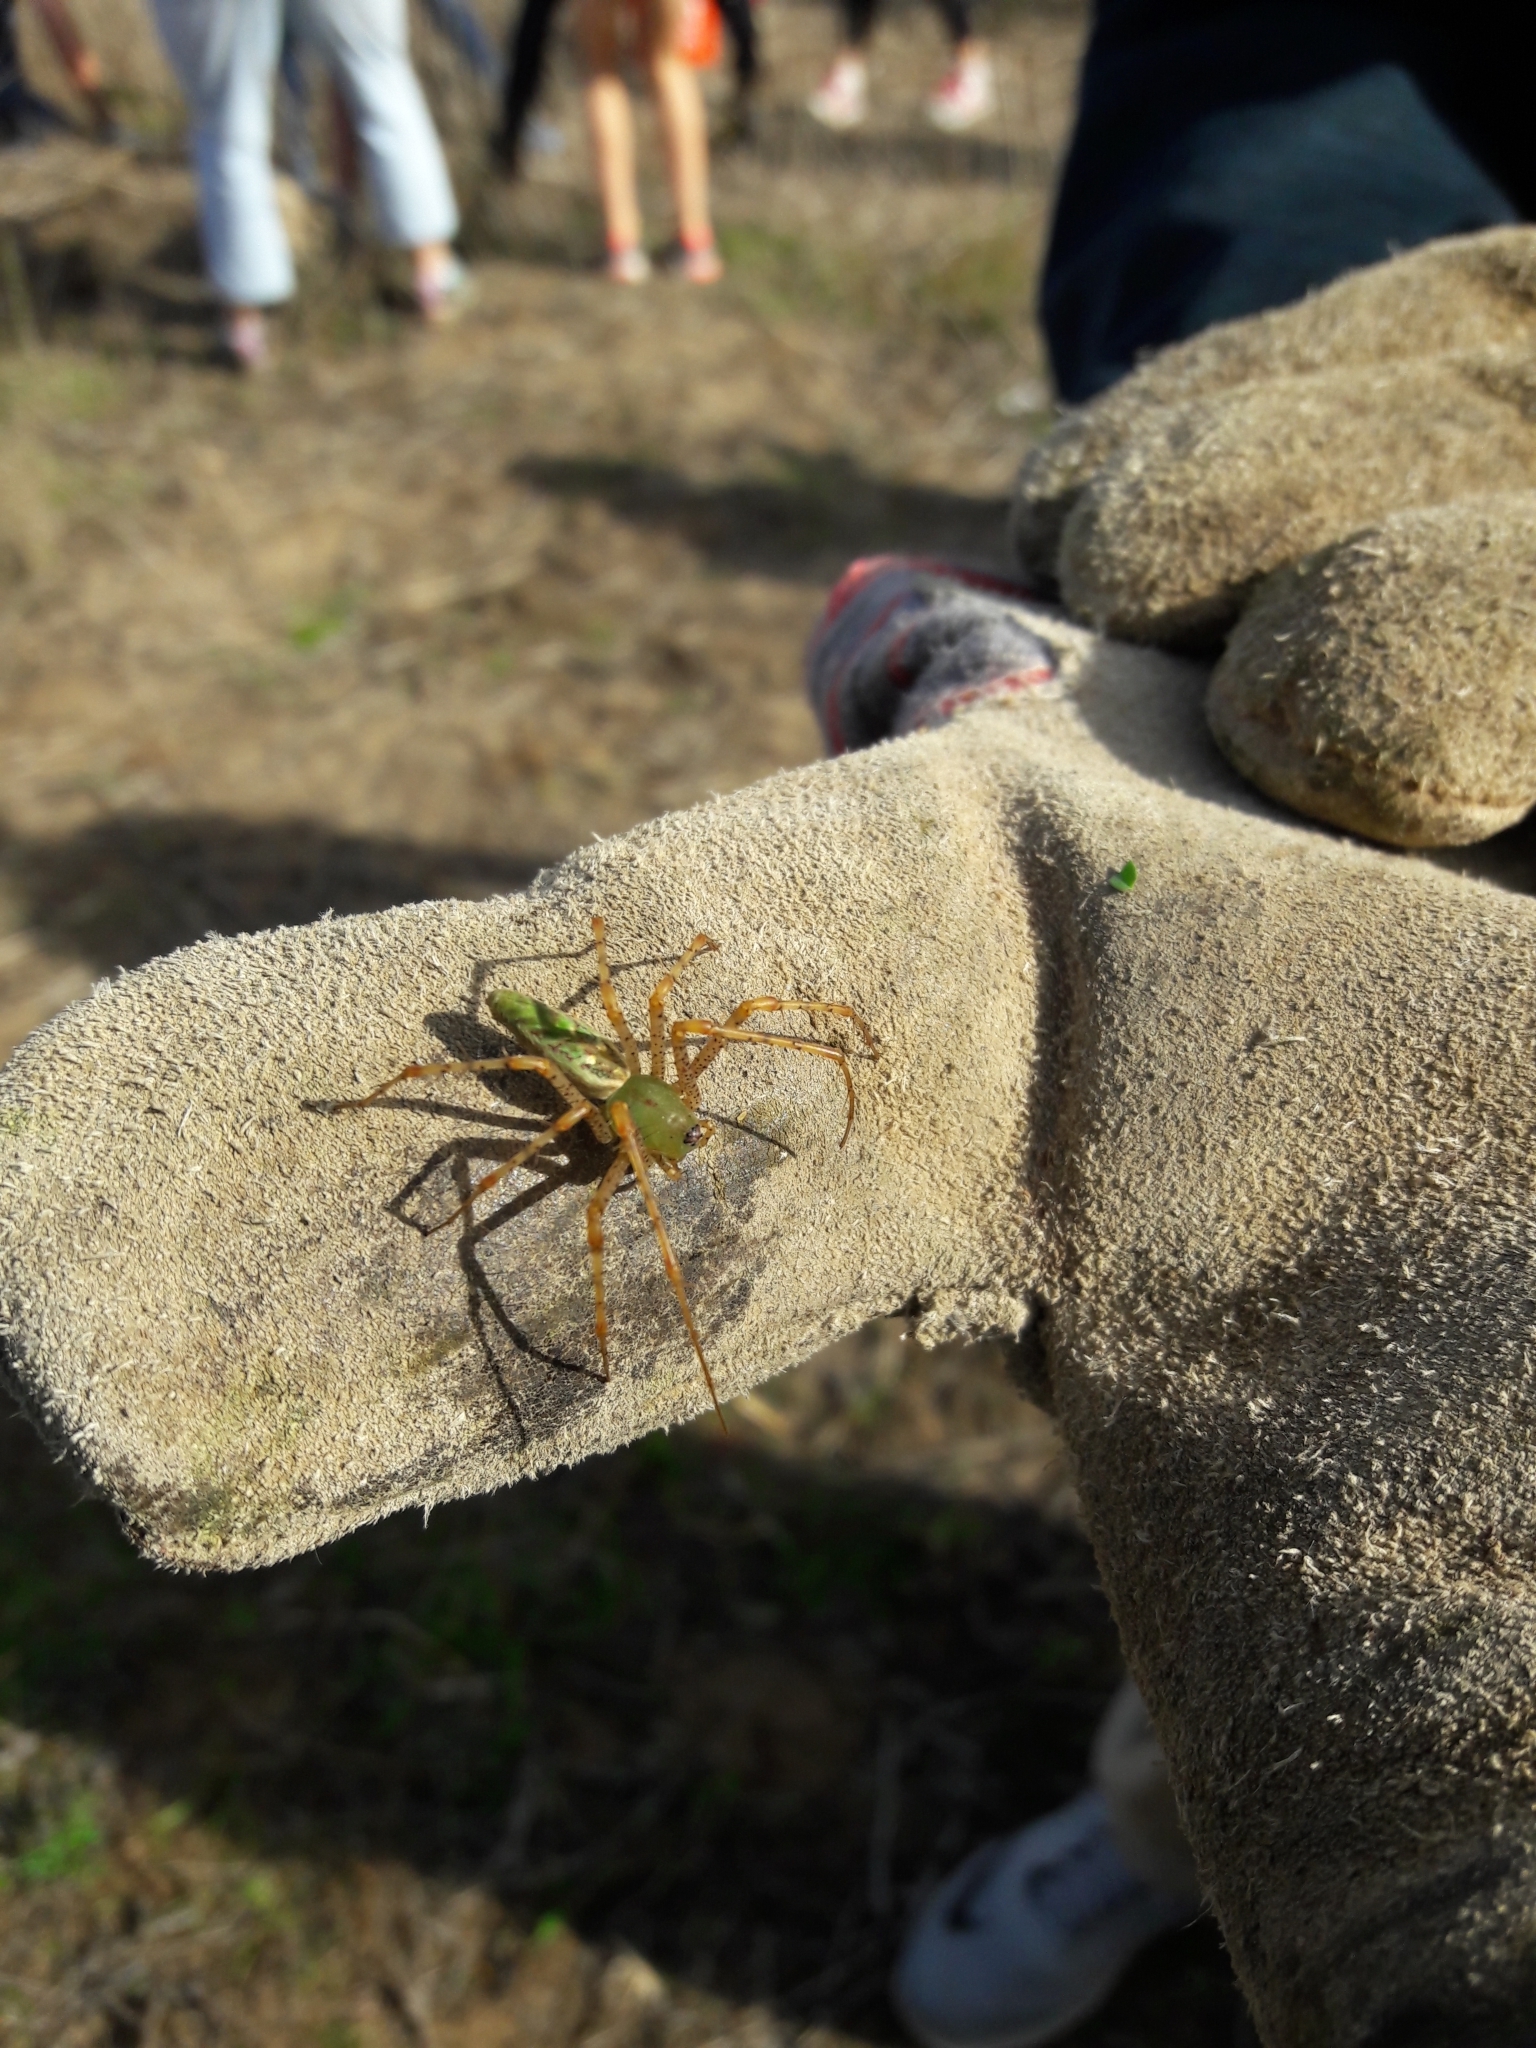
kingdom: Animalia
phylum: Arthropoda
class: Arachnida
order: Araneae
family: Oxyopidae
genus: Peucetia
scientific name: Peucetia viridans
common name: Lynx spiders
